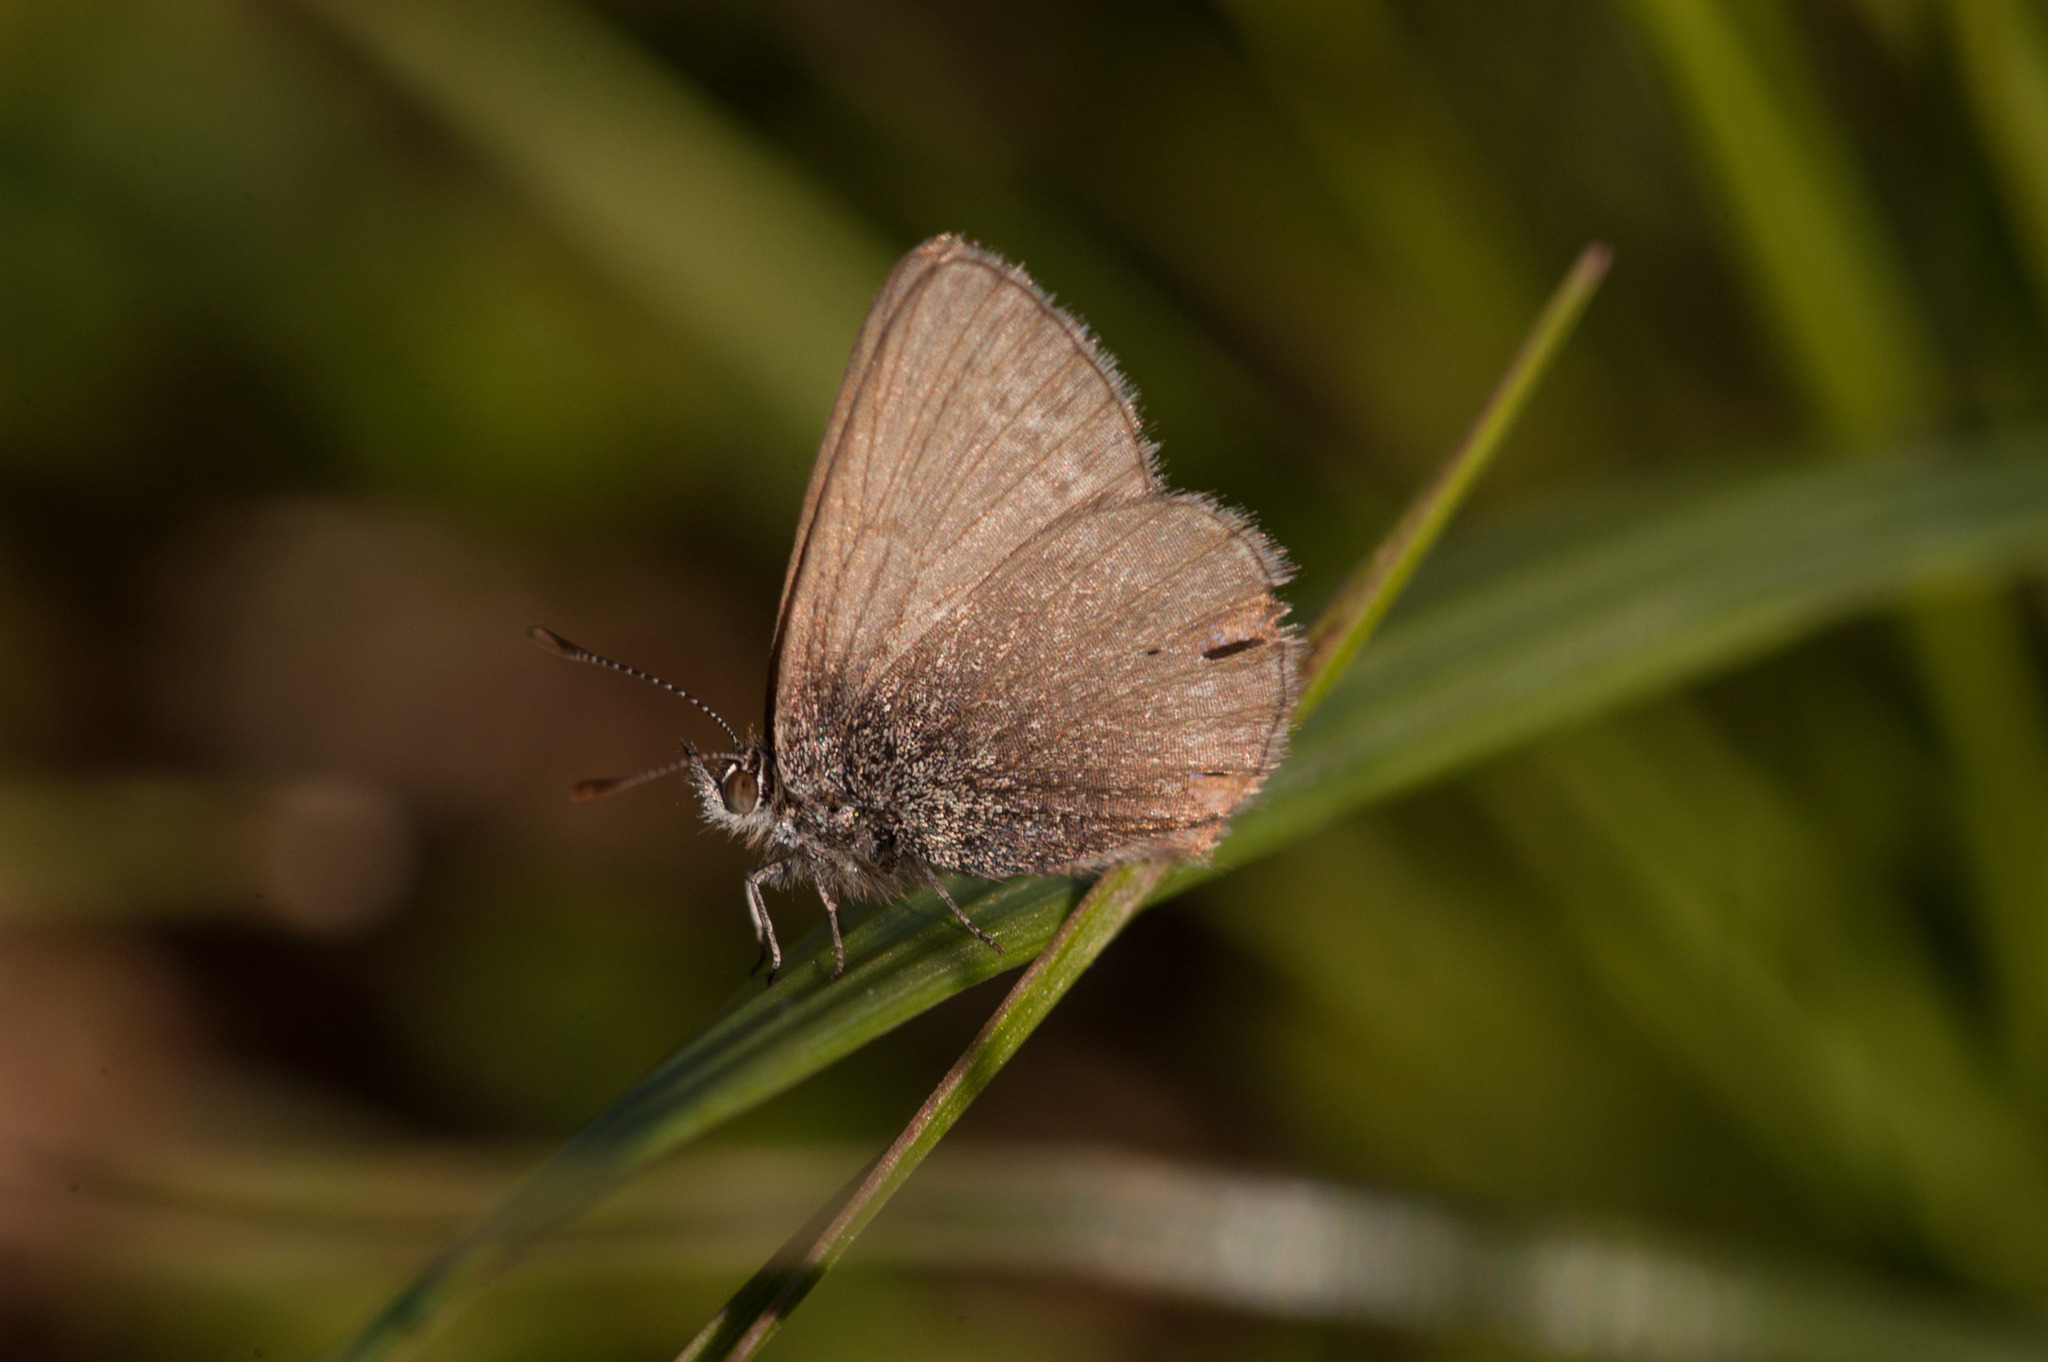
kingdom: Animalia
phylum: Arthropoda
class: Insecta
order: Lepidoptera
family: Lycaenidae
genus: Zizina
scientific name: Zizina labradus
